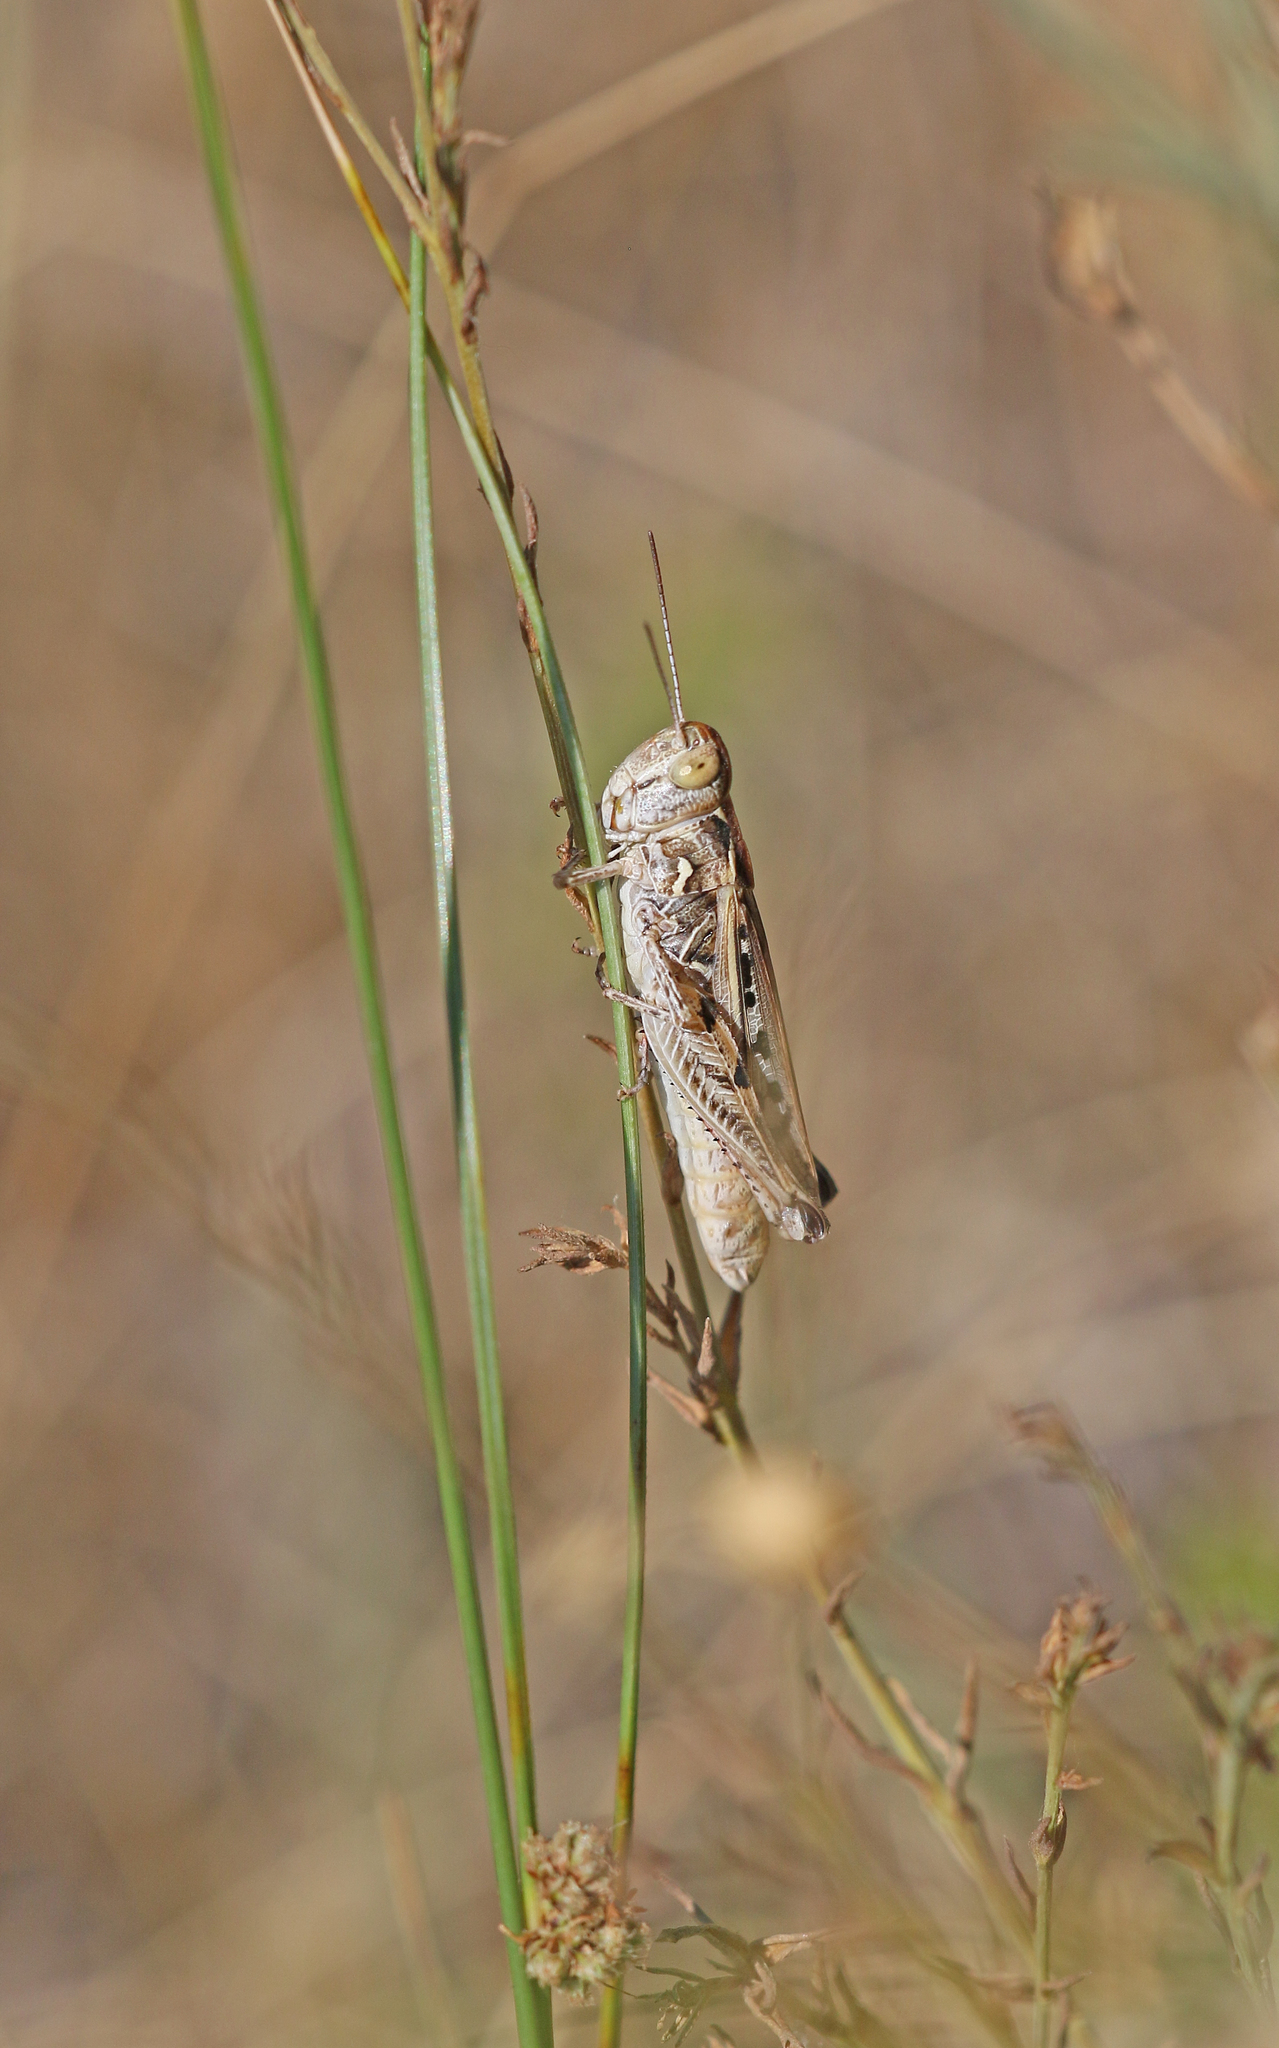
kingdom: Animalia
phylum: Arthropoda
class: Insecta
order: Orthoptera
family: Acrididae
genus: Dociostaurus
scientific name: Dociostaurus brevicollis
